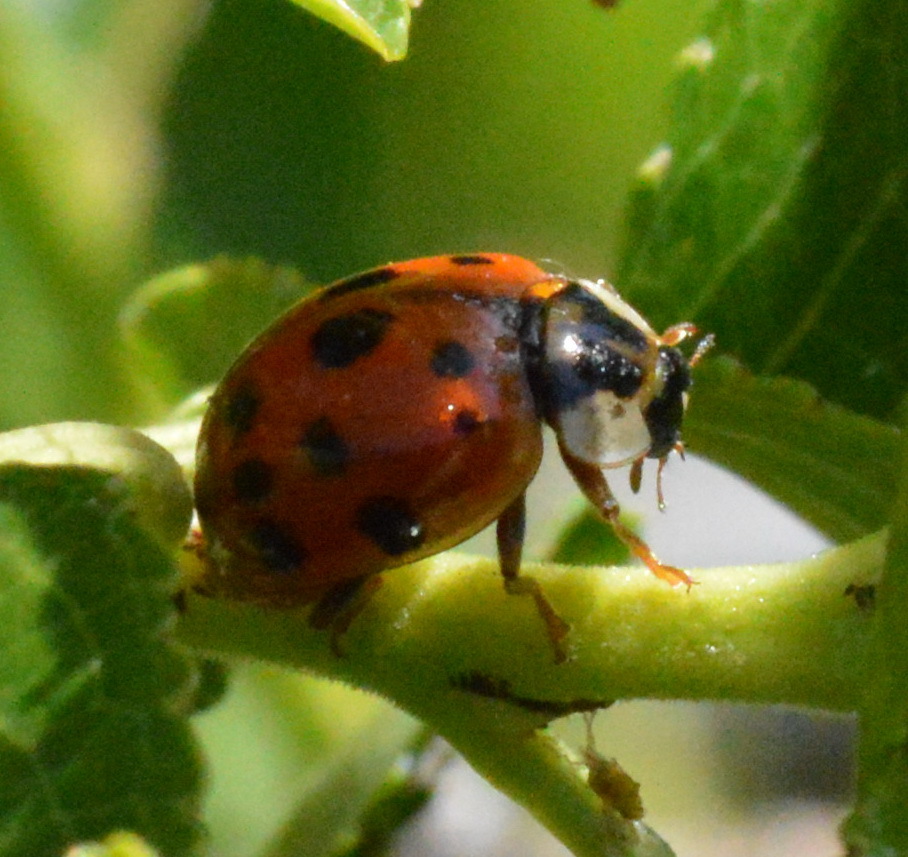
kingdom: Animalia
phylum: Arthropoda
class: Insecta
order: Coleoptera
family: Coccinellidae
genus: Harmonia
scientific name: Harmonia axyridis
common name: Harlequin ladybird
